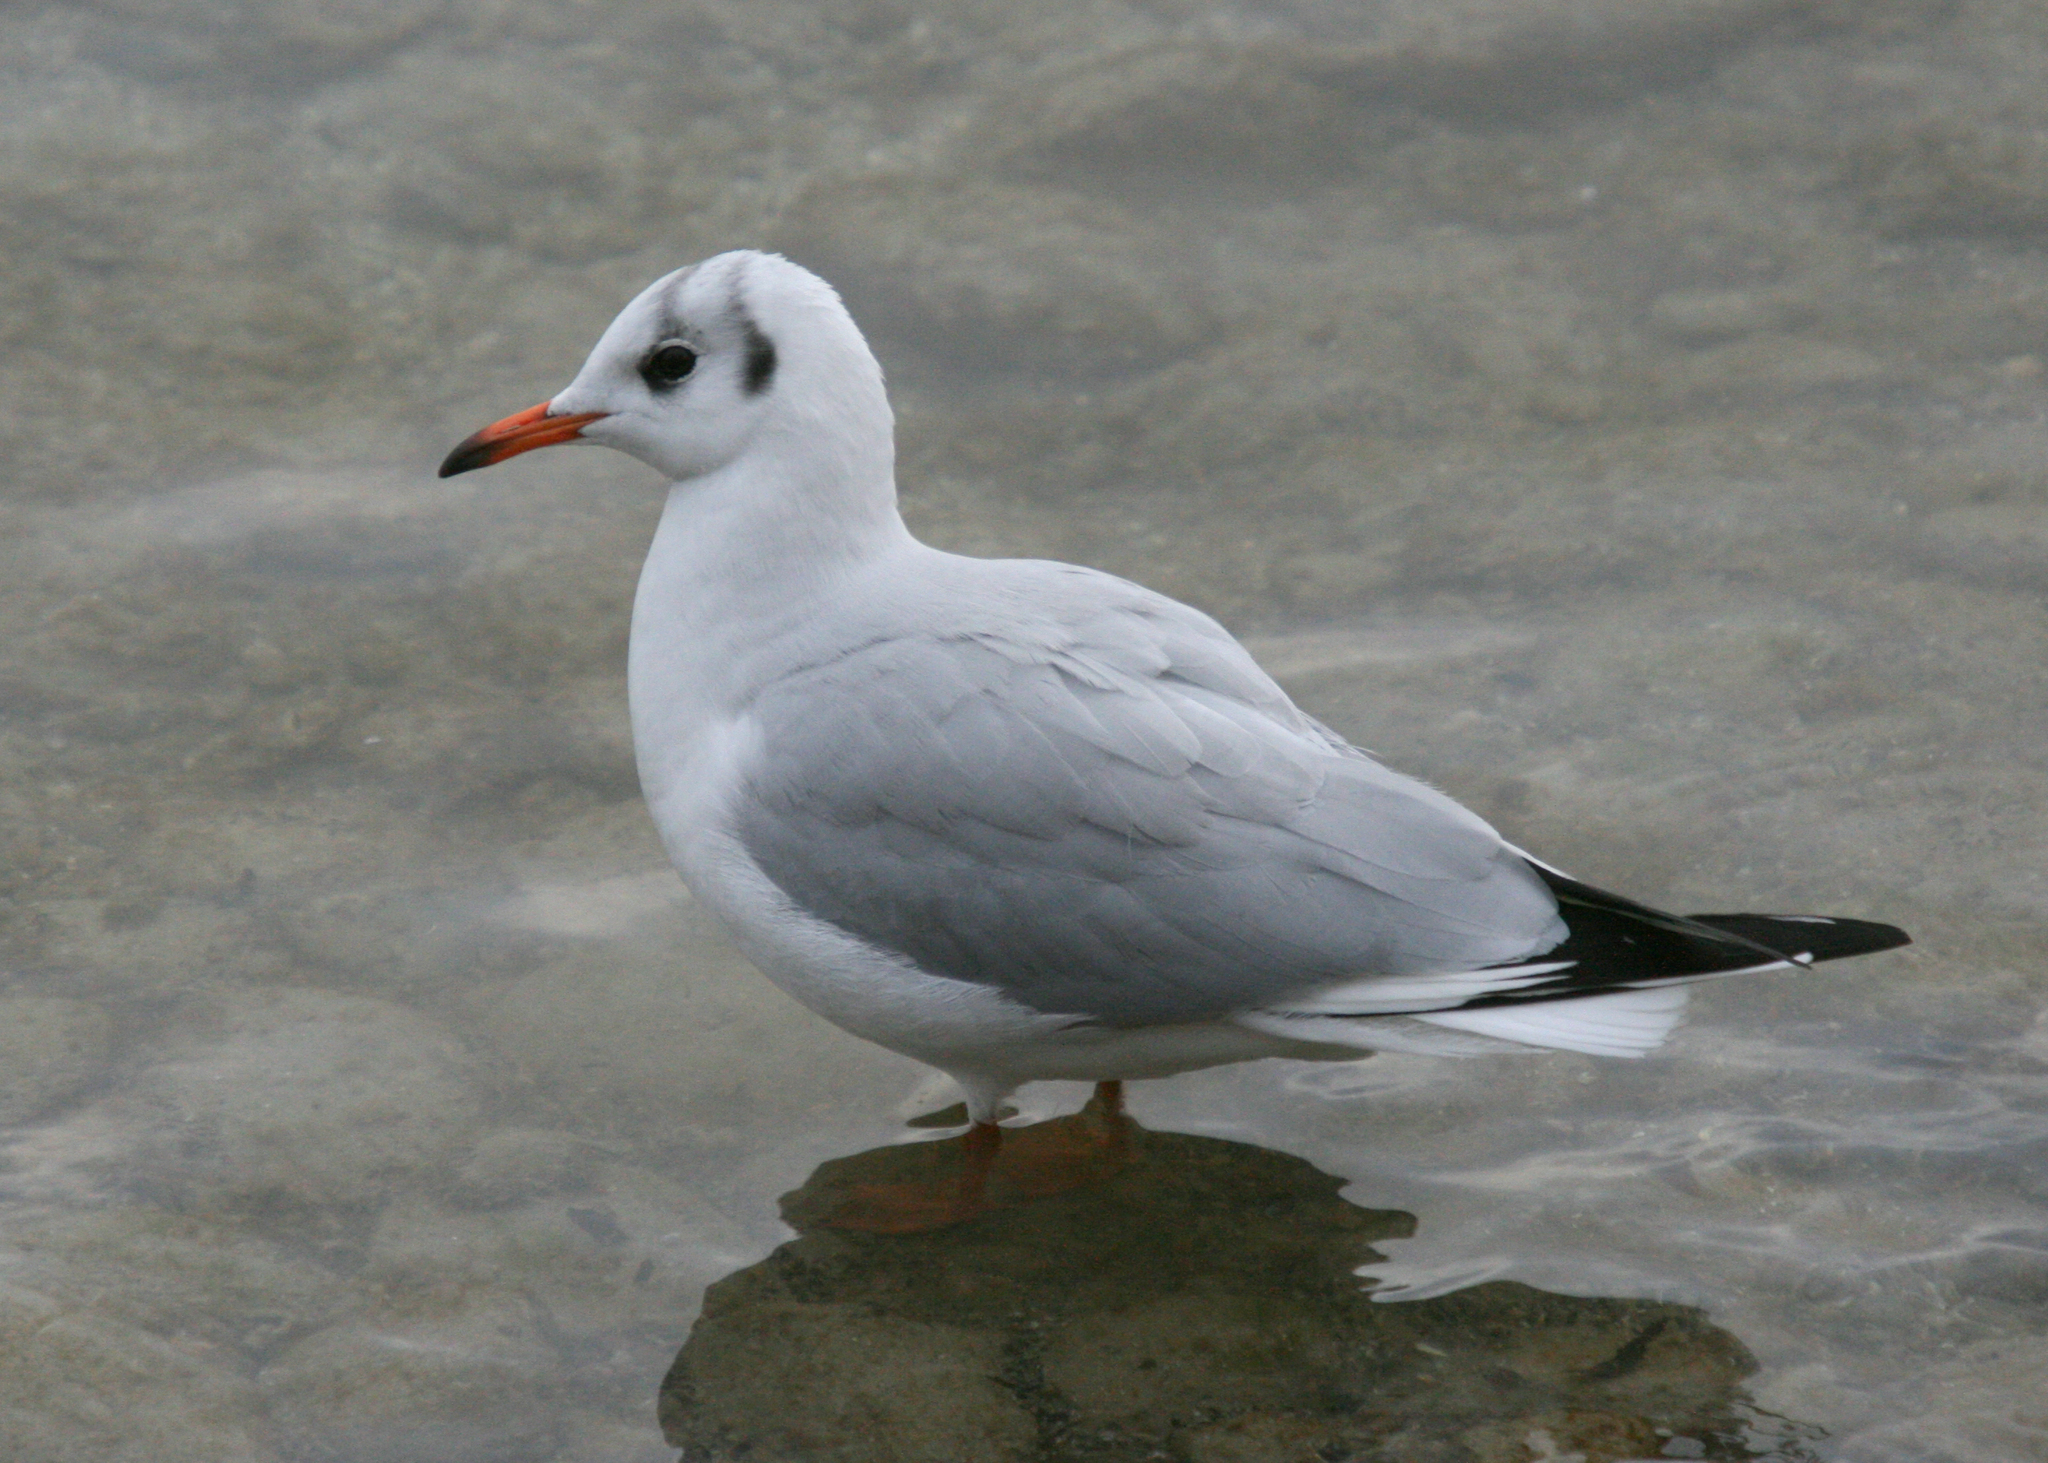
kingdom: Animalia
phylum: Chordata
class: Aves
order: Charadriiformes
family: Laridae
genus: Chroicocephalus
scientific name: Chroicocephalus ridibundus
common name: Black-headed gull
